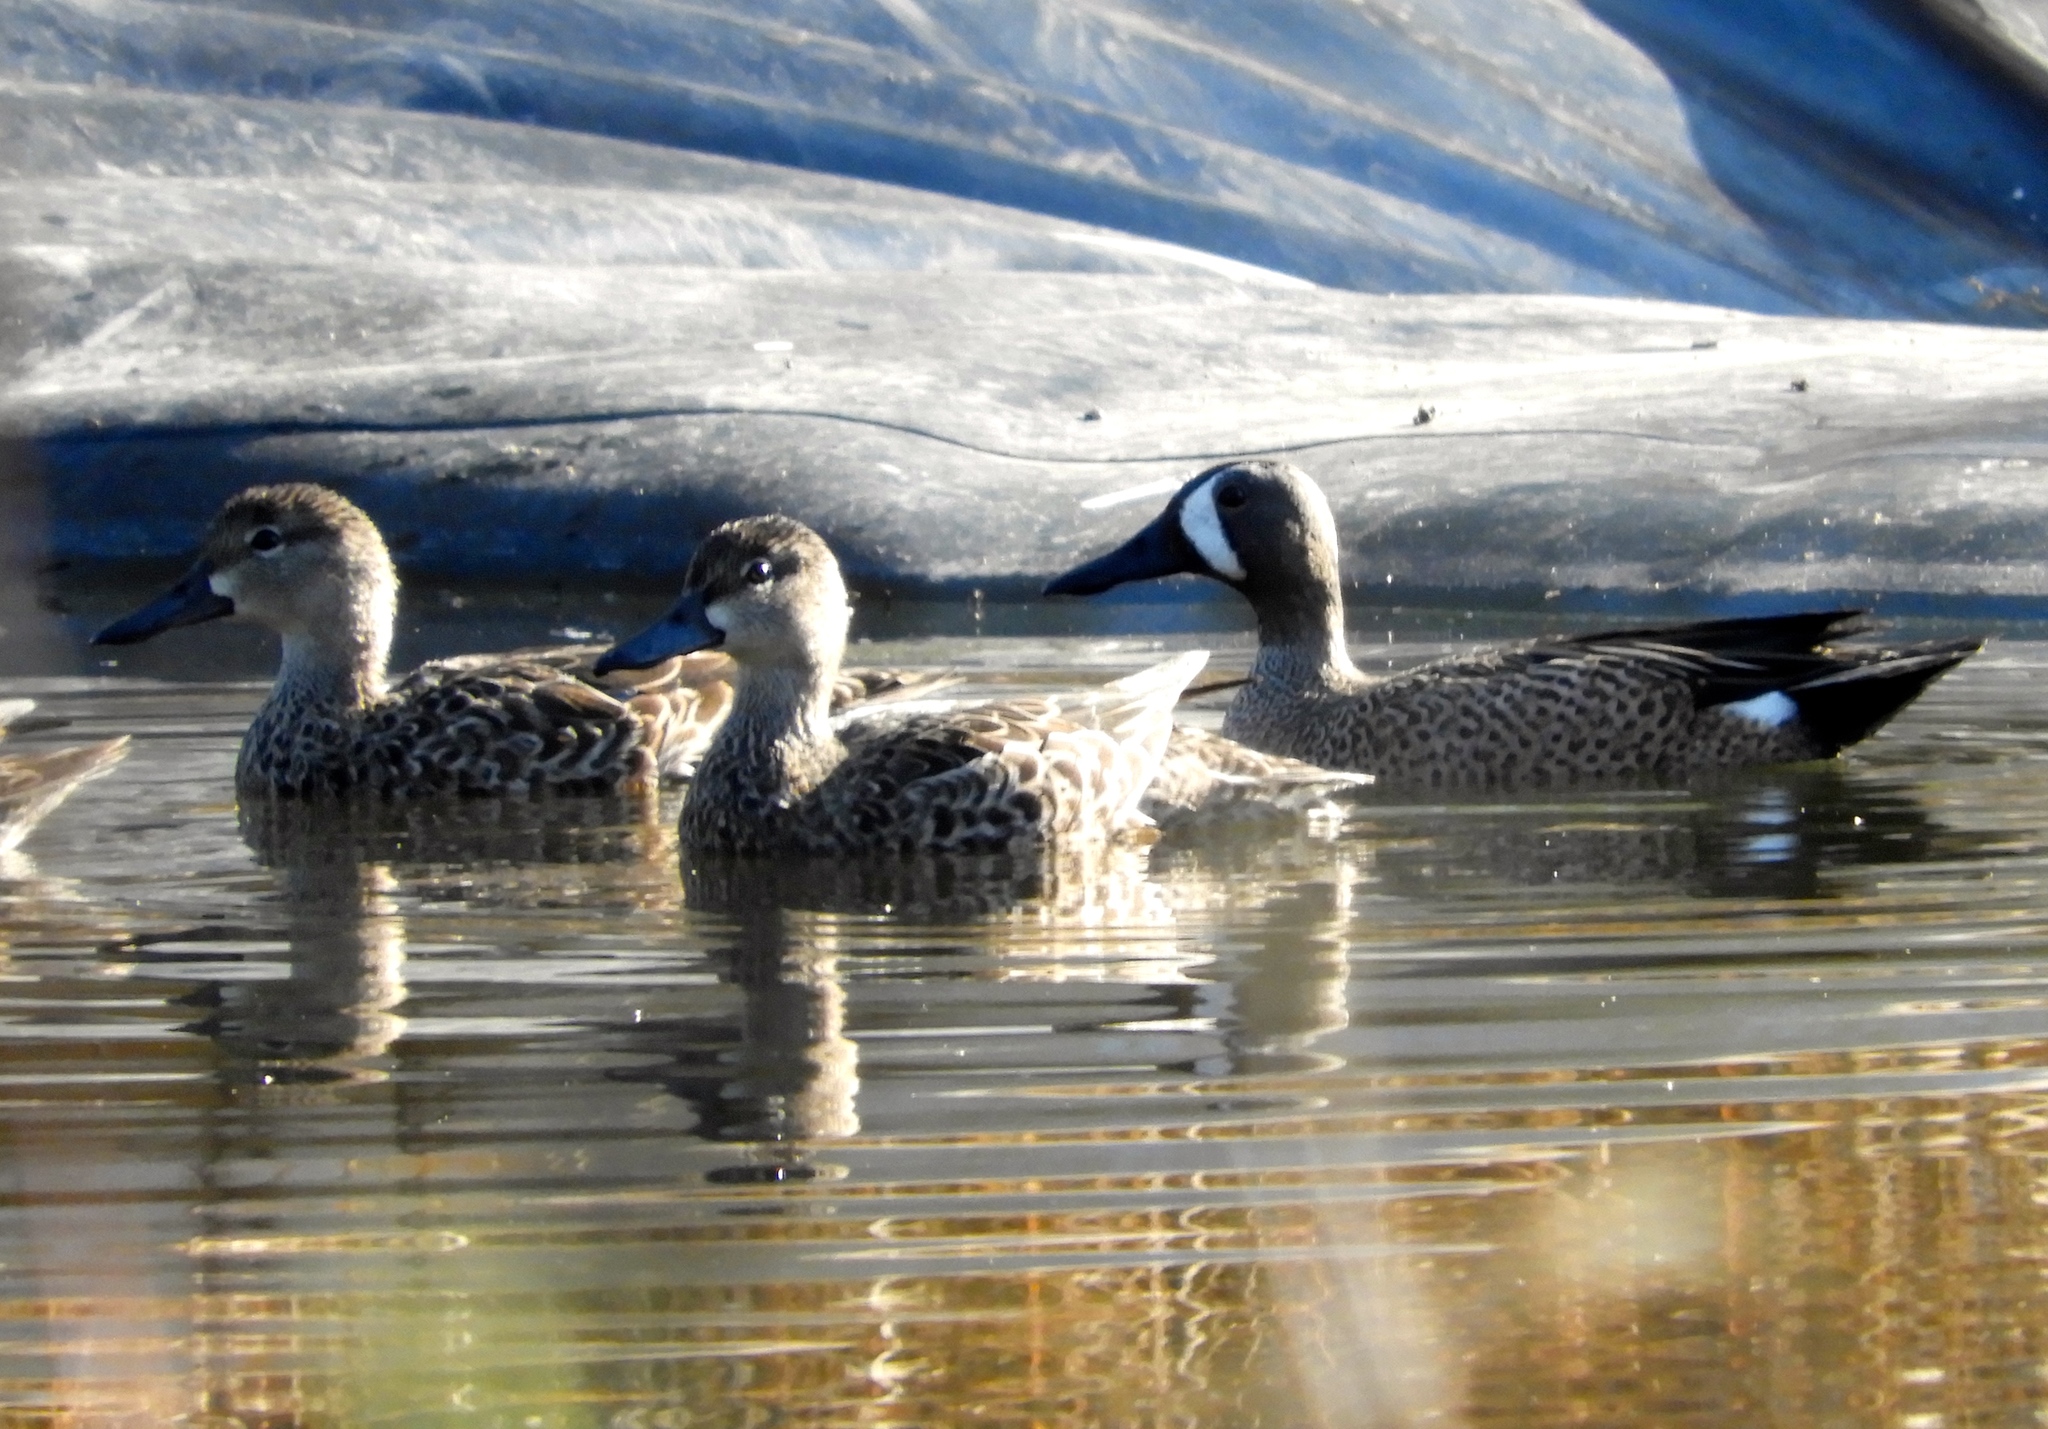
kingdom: Animalia
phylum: Chordata
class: Aves
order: Anseriformes
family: Anatidae
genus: Spatula
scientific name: Spatula discors
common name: Blue-winged teal
